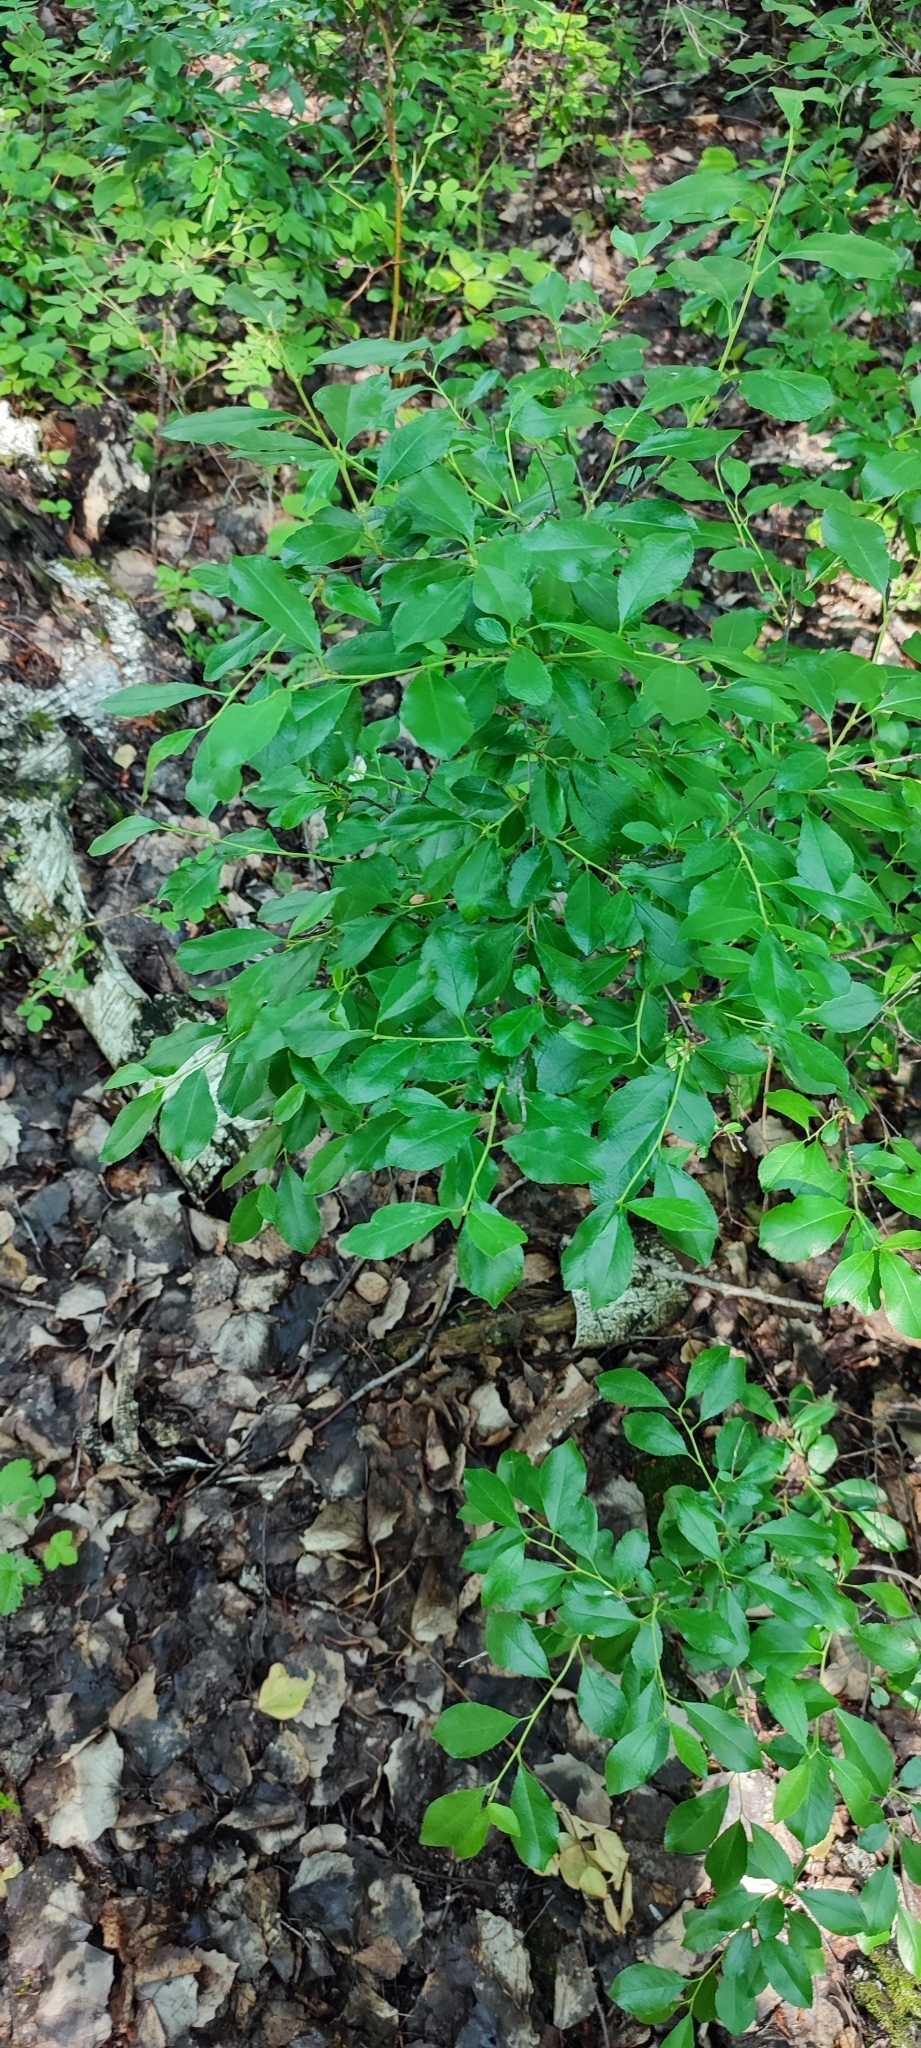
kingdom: Plantae
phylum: Tracheophyta
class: Magnoliopsida
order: Rosales
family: Rosaceae
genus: Prunus
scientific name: Prunus fruticosa
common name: European dwarf cherry
